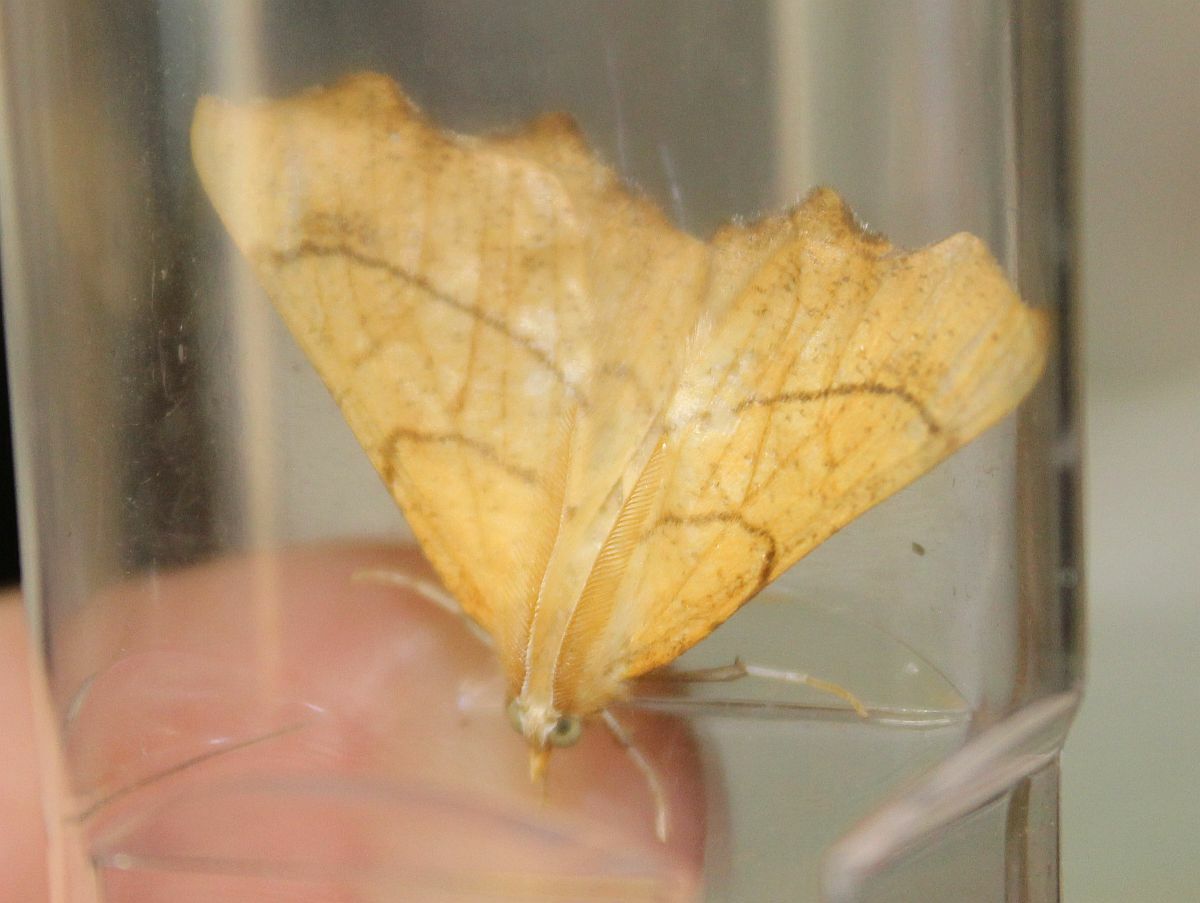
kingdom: Animalia
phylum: Arthropoda
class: Insecta
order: Lepidoptera
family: Geometridae
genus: Ennomos
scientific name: Ennomos quercinaria
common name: August thorn
